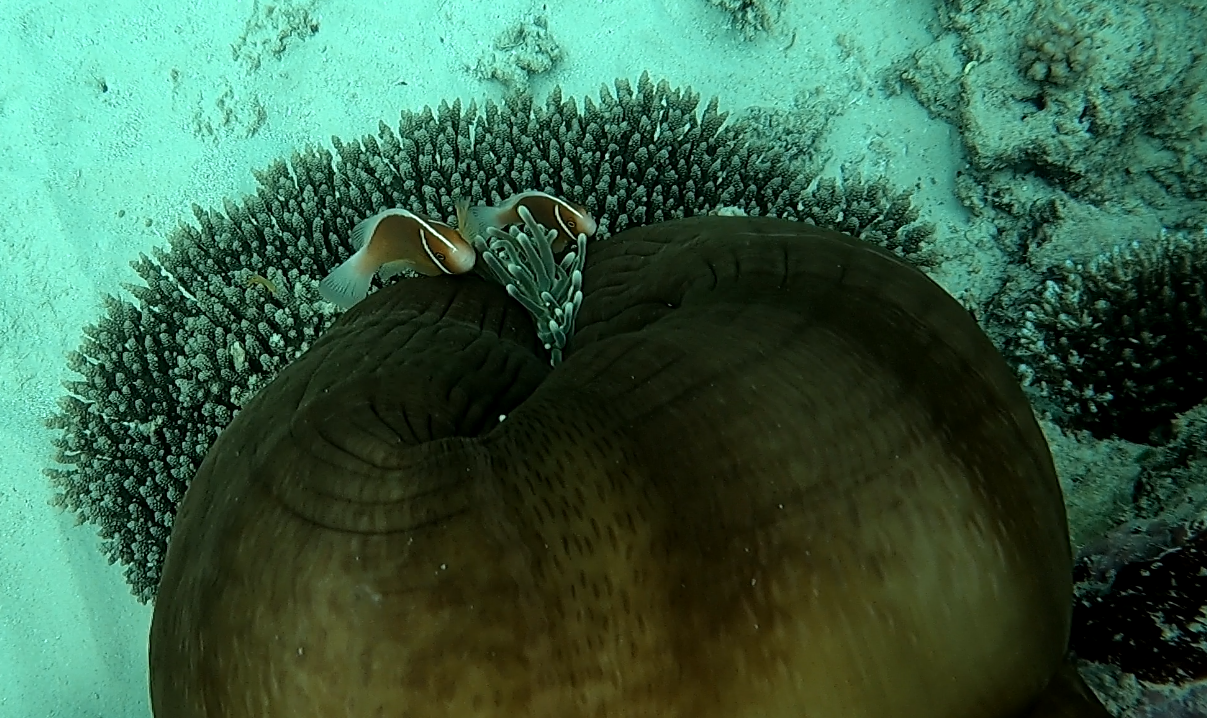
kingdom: Animalia
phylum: Chordata
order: Perciformes
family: Pomacentridae
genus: Amphiprion
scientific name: Amphiprion perideraion
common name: Pink anemonefish
